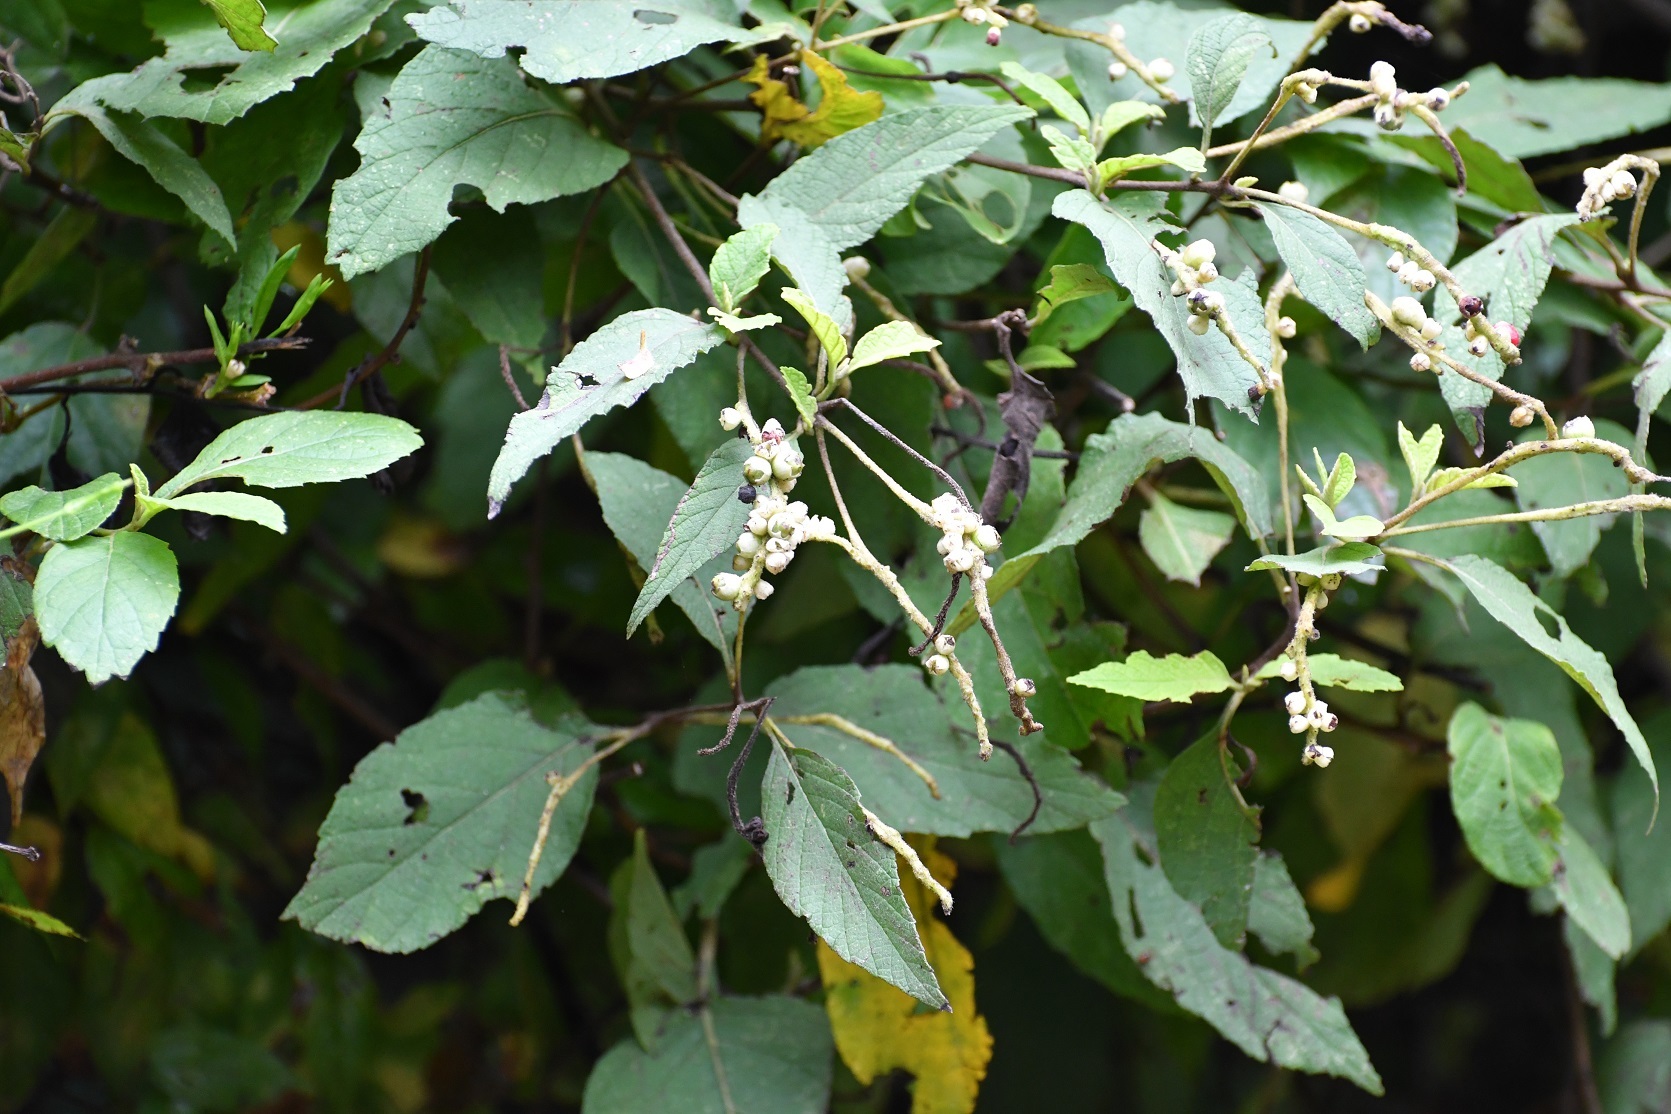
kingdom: Plantae
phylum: Tracheophyta
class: Magnoliopsida
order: Boraginales
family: Cordiaceae
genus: Varronia
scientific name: Varronia spinescens
